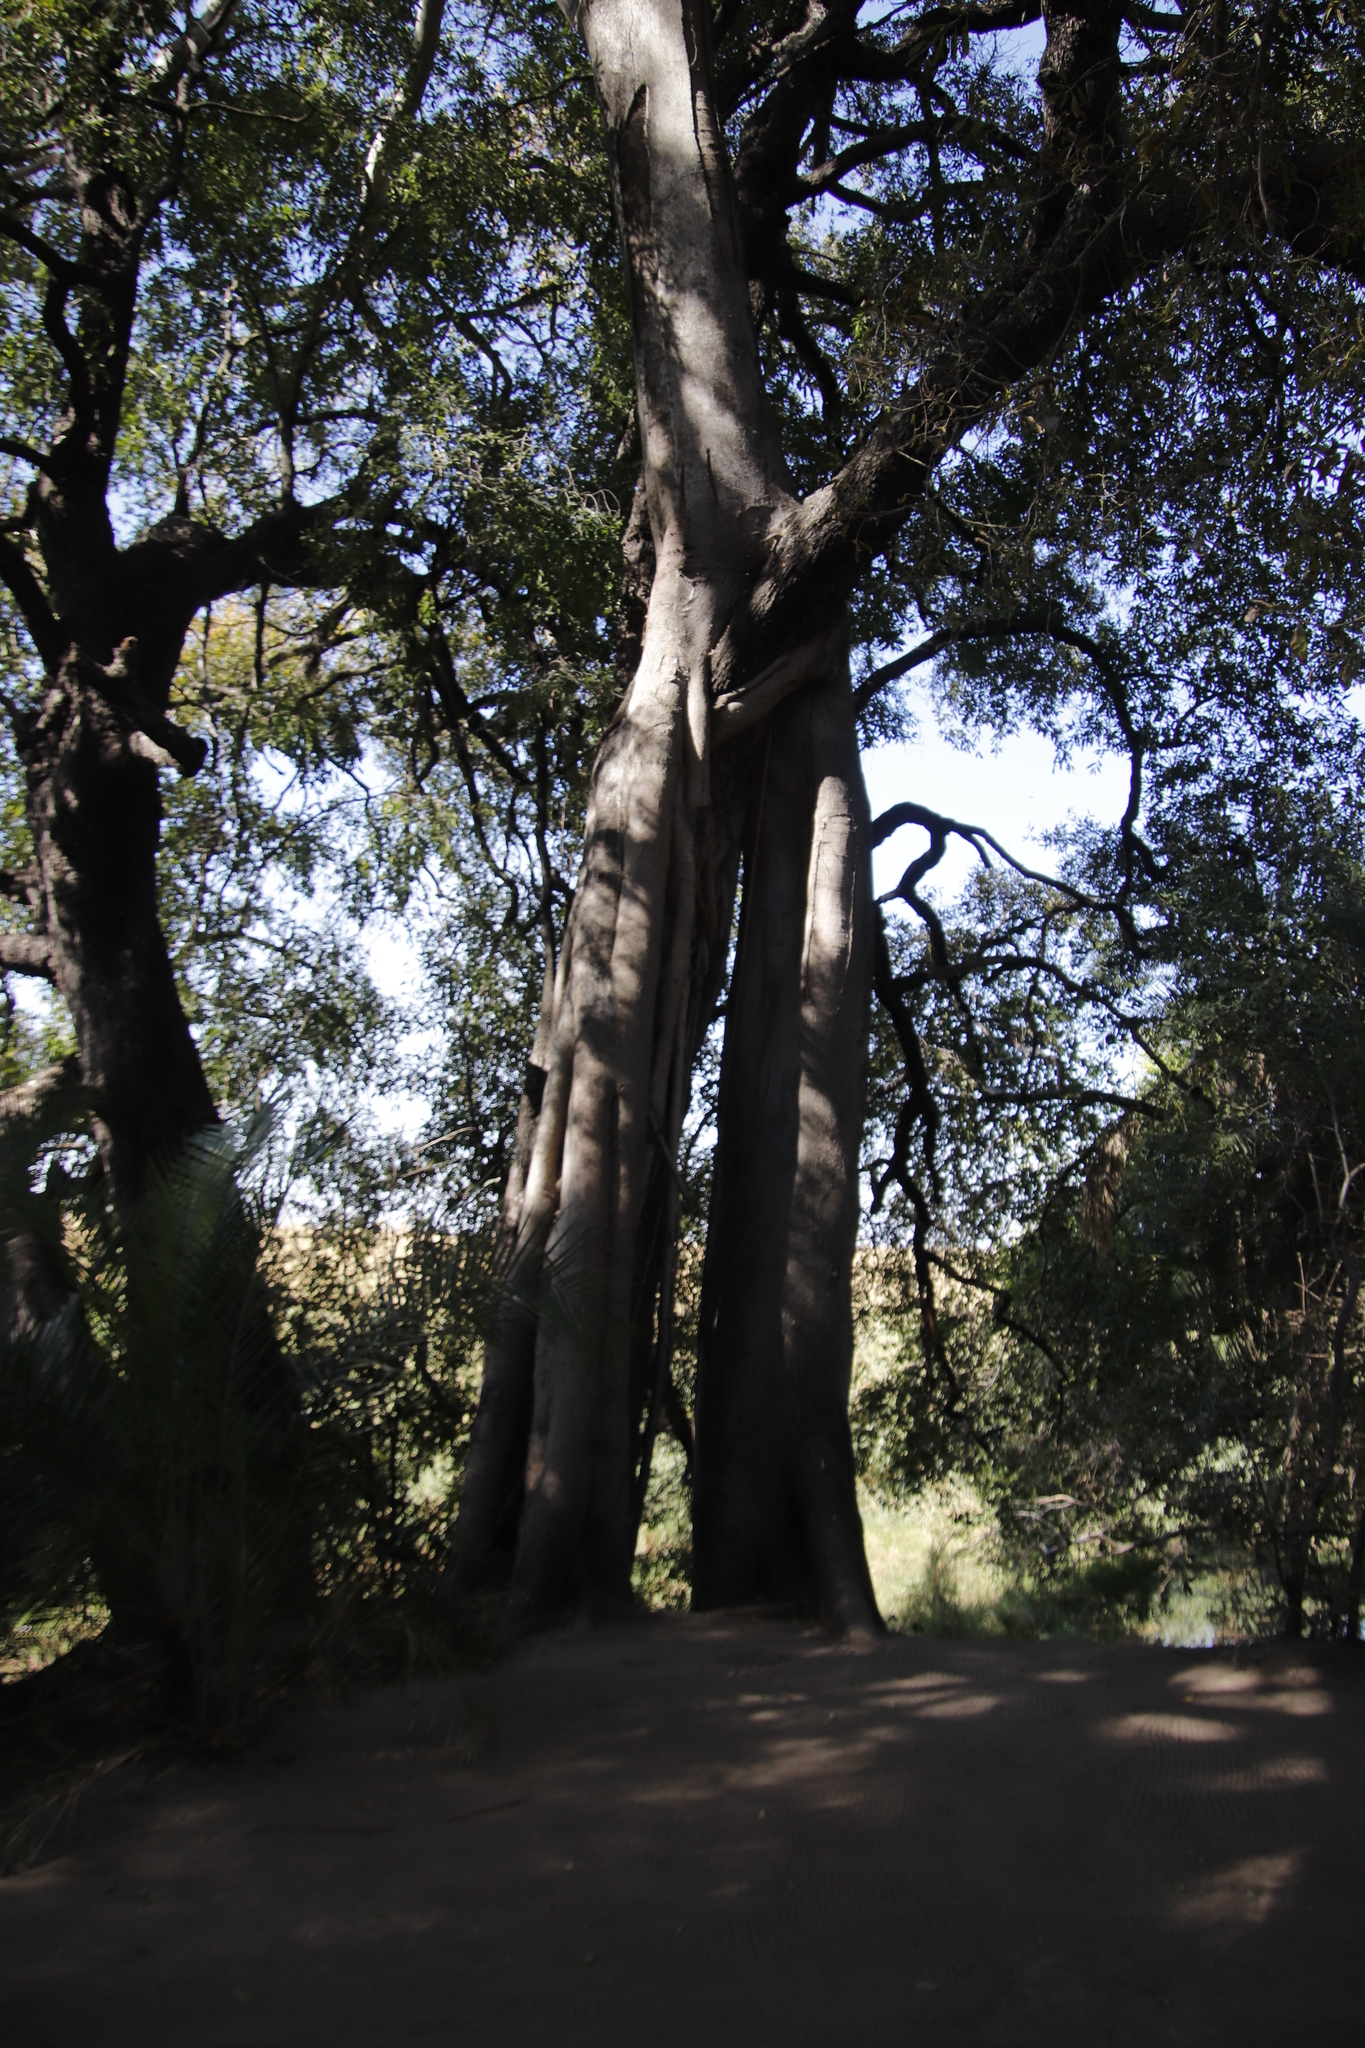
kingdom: Plantae
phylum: Tracheophyta
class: Magnoliopsida
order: Rosales
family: Moraceae
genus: Ficus
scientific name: Ficus thonningii
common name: Fig
